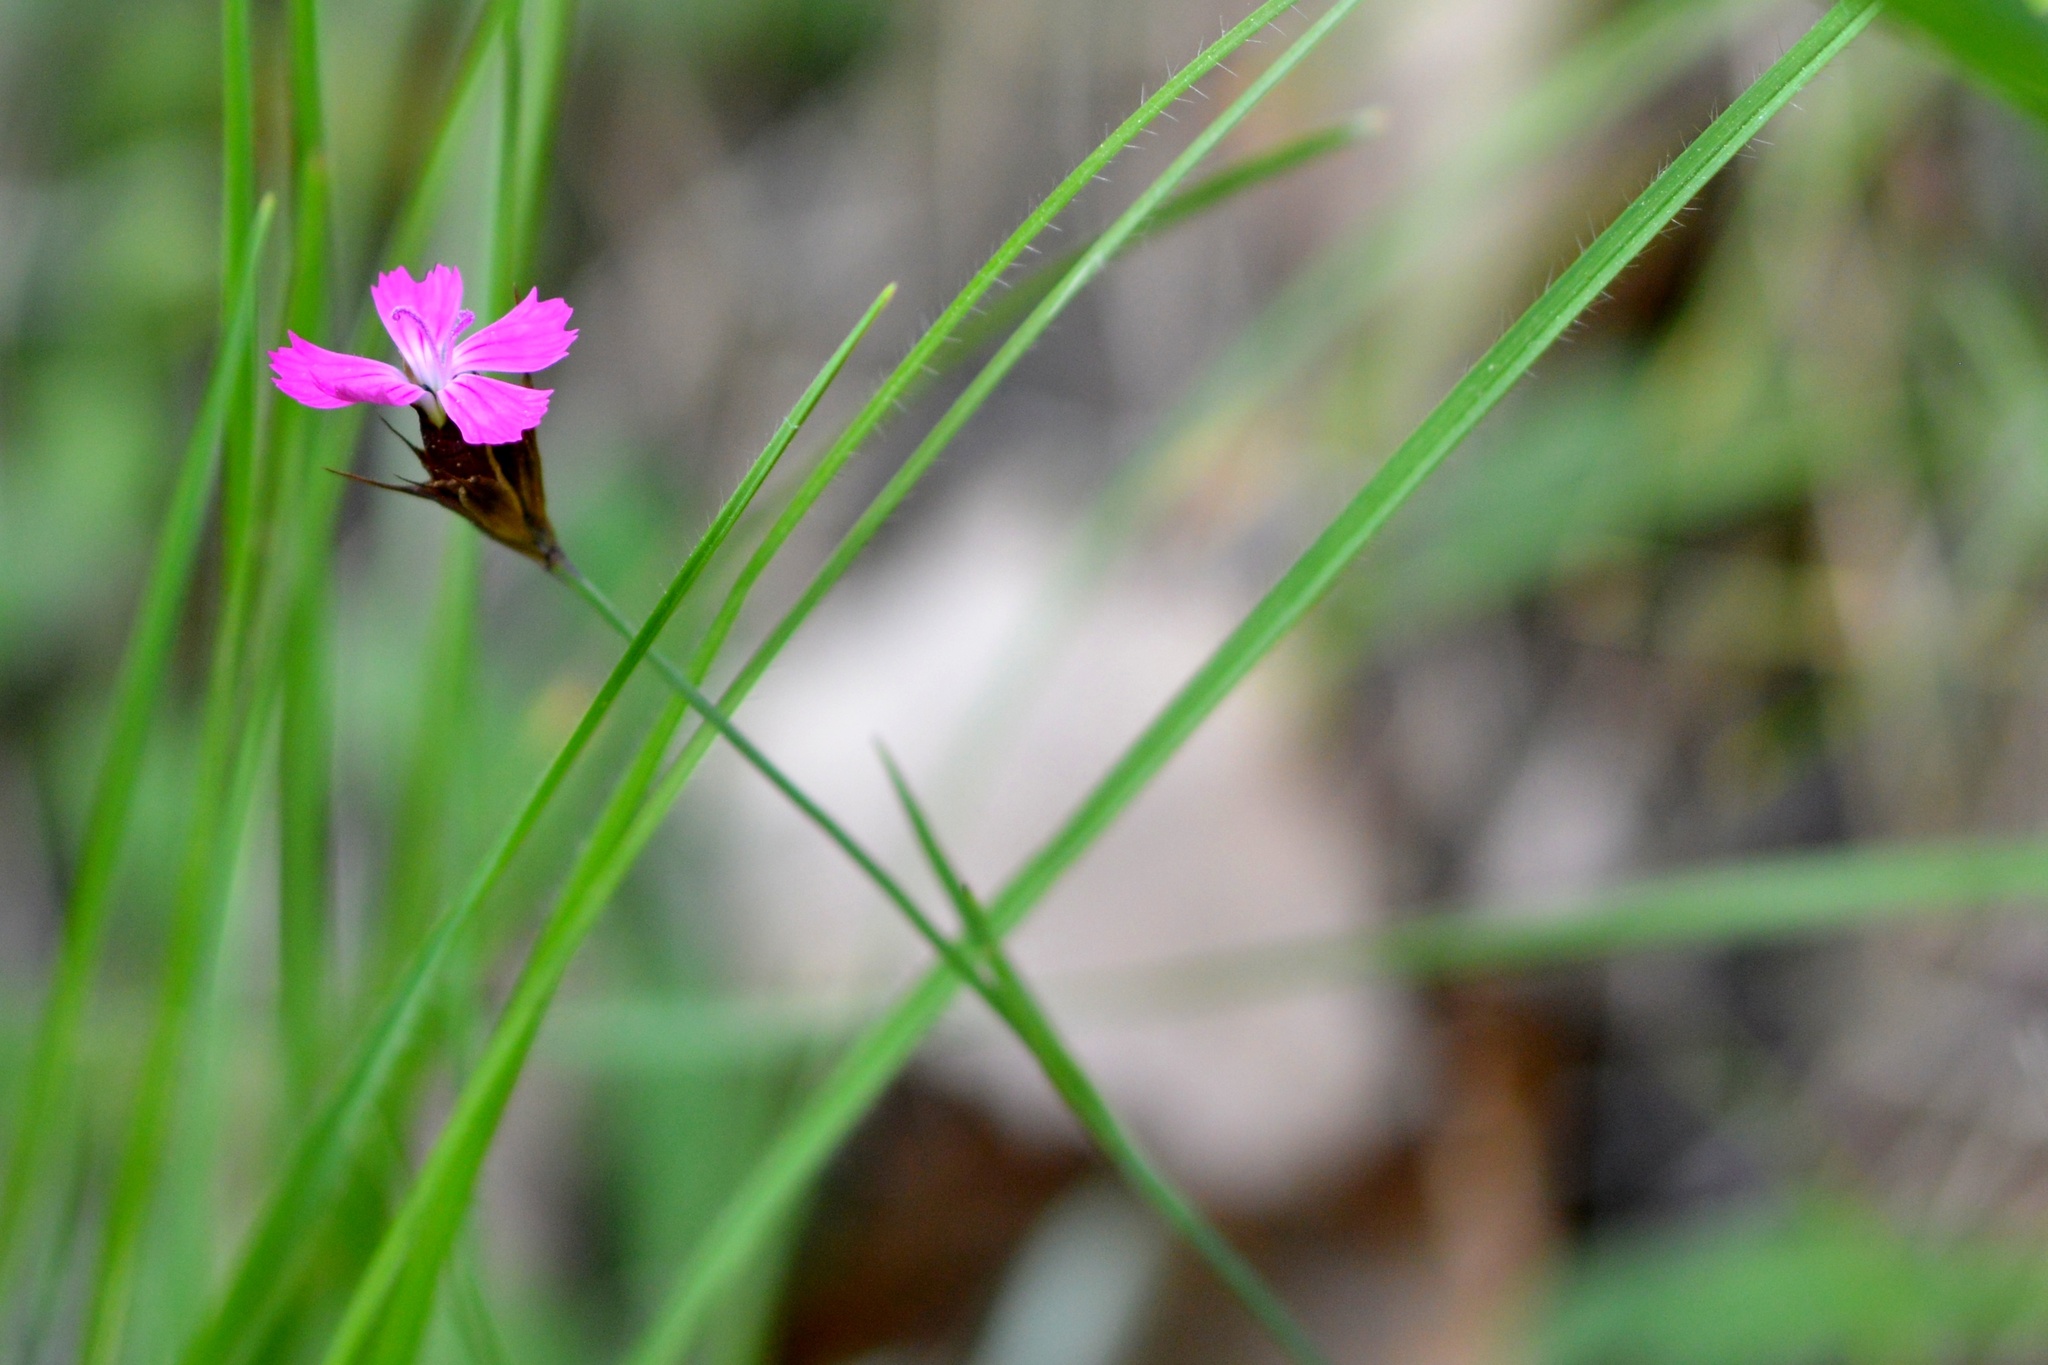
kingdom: Plantae
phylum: Tracheophyta
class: Magnoliopsida
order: Caryophyllales
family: Caryophyllaceae
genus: Dianthus
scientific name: Dianthus carthusianorum
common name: Carthusian pink
